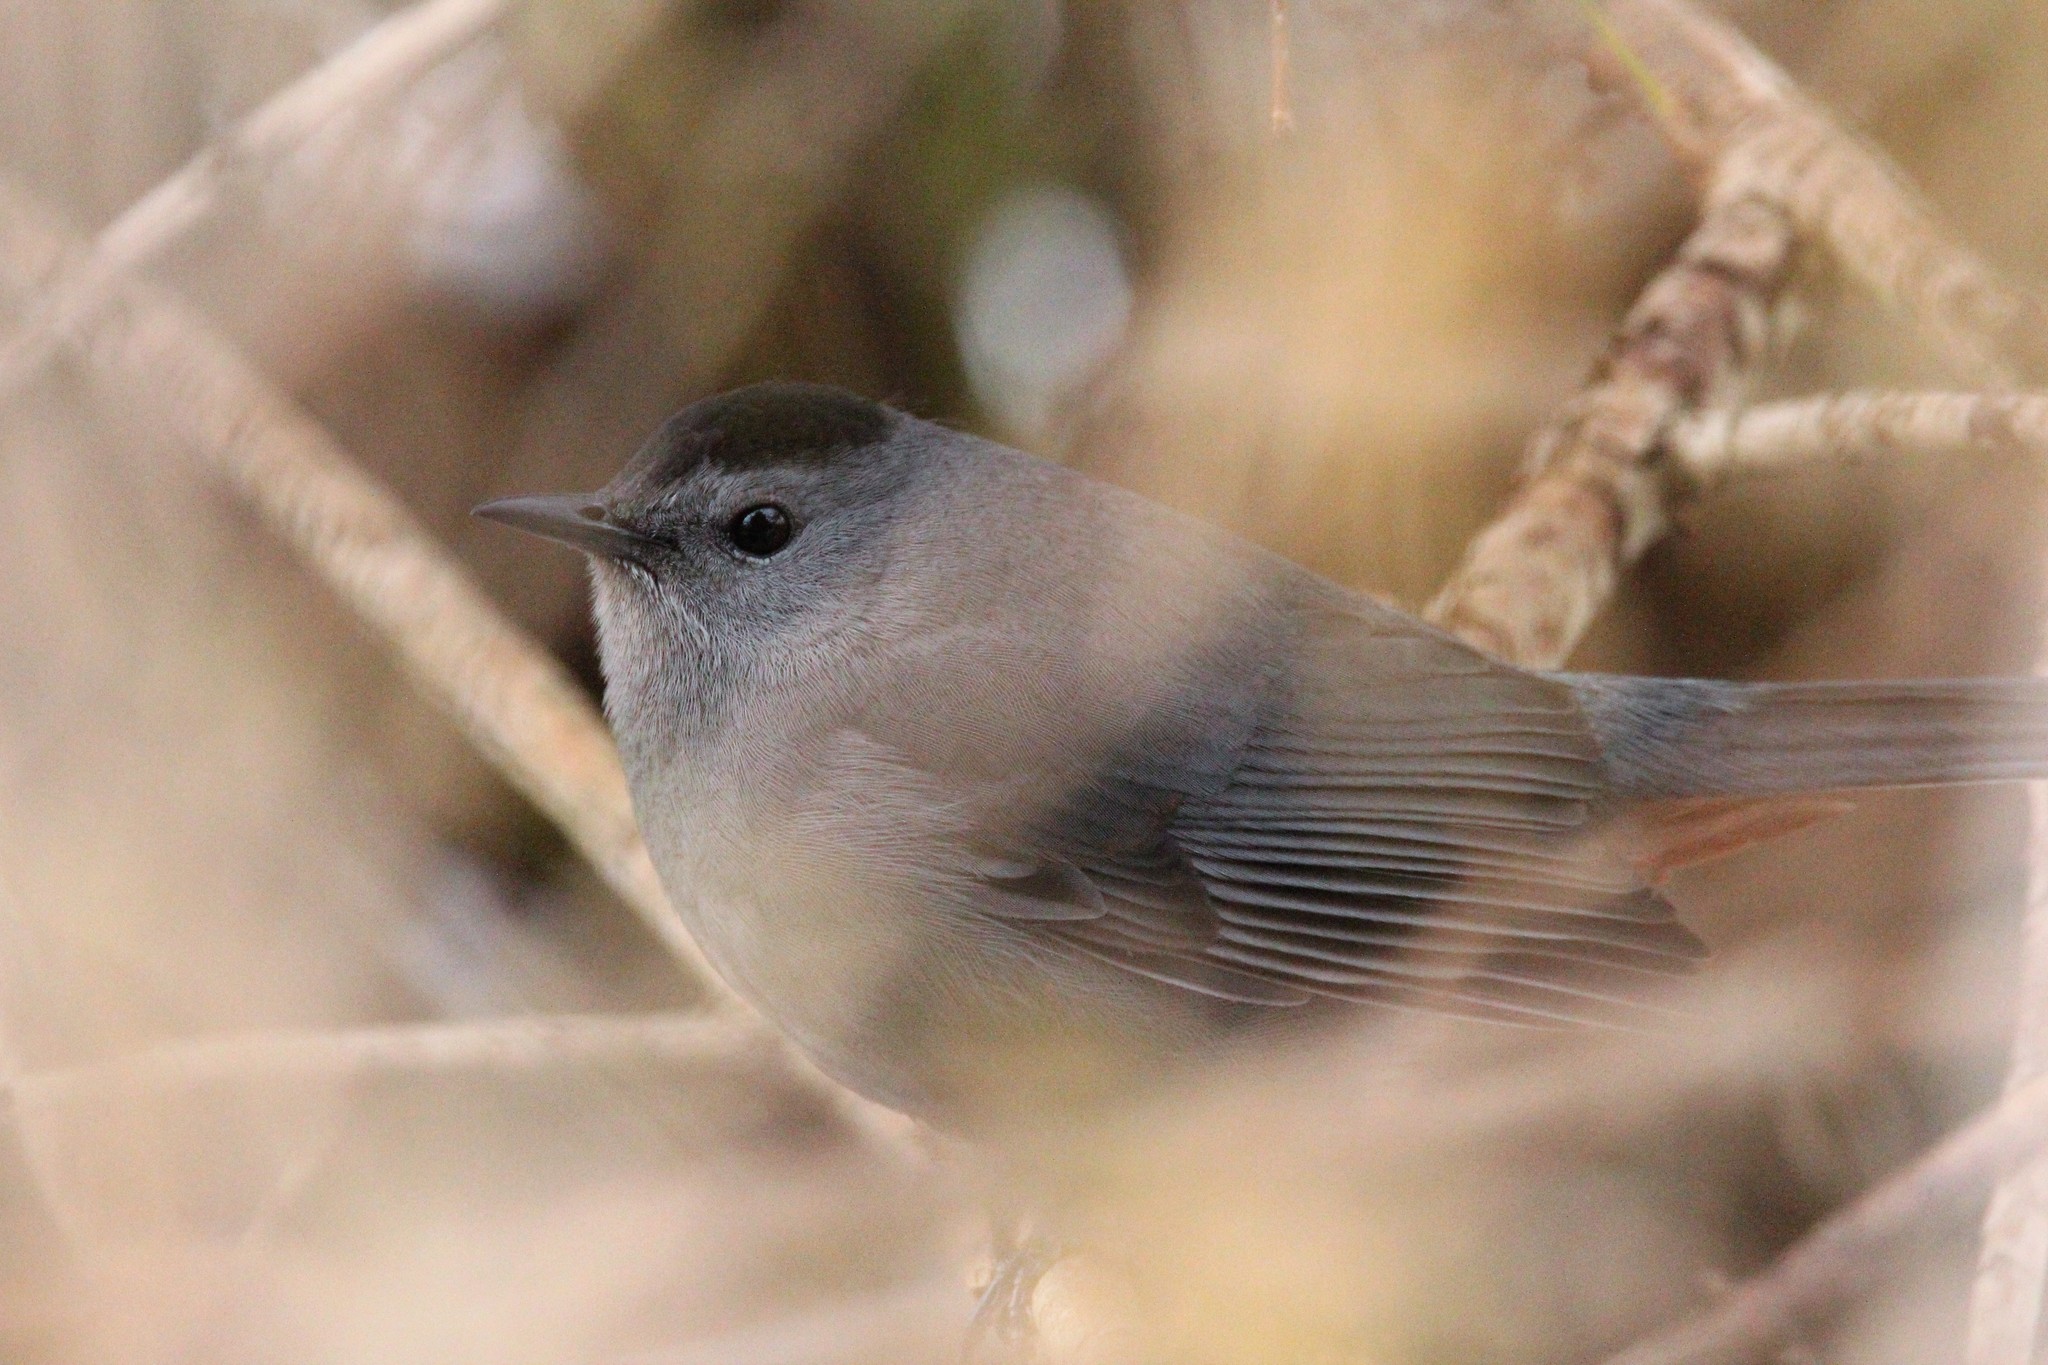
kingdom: Animalia
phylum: Chordata
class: Aves
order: Passeriformes
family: Mimidae
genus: Dumetella
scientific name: Dumetella carolinensis
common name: Gray catbird
